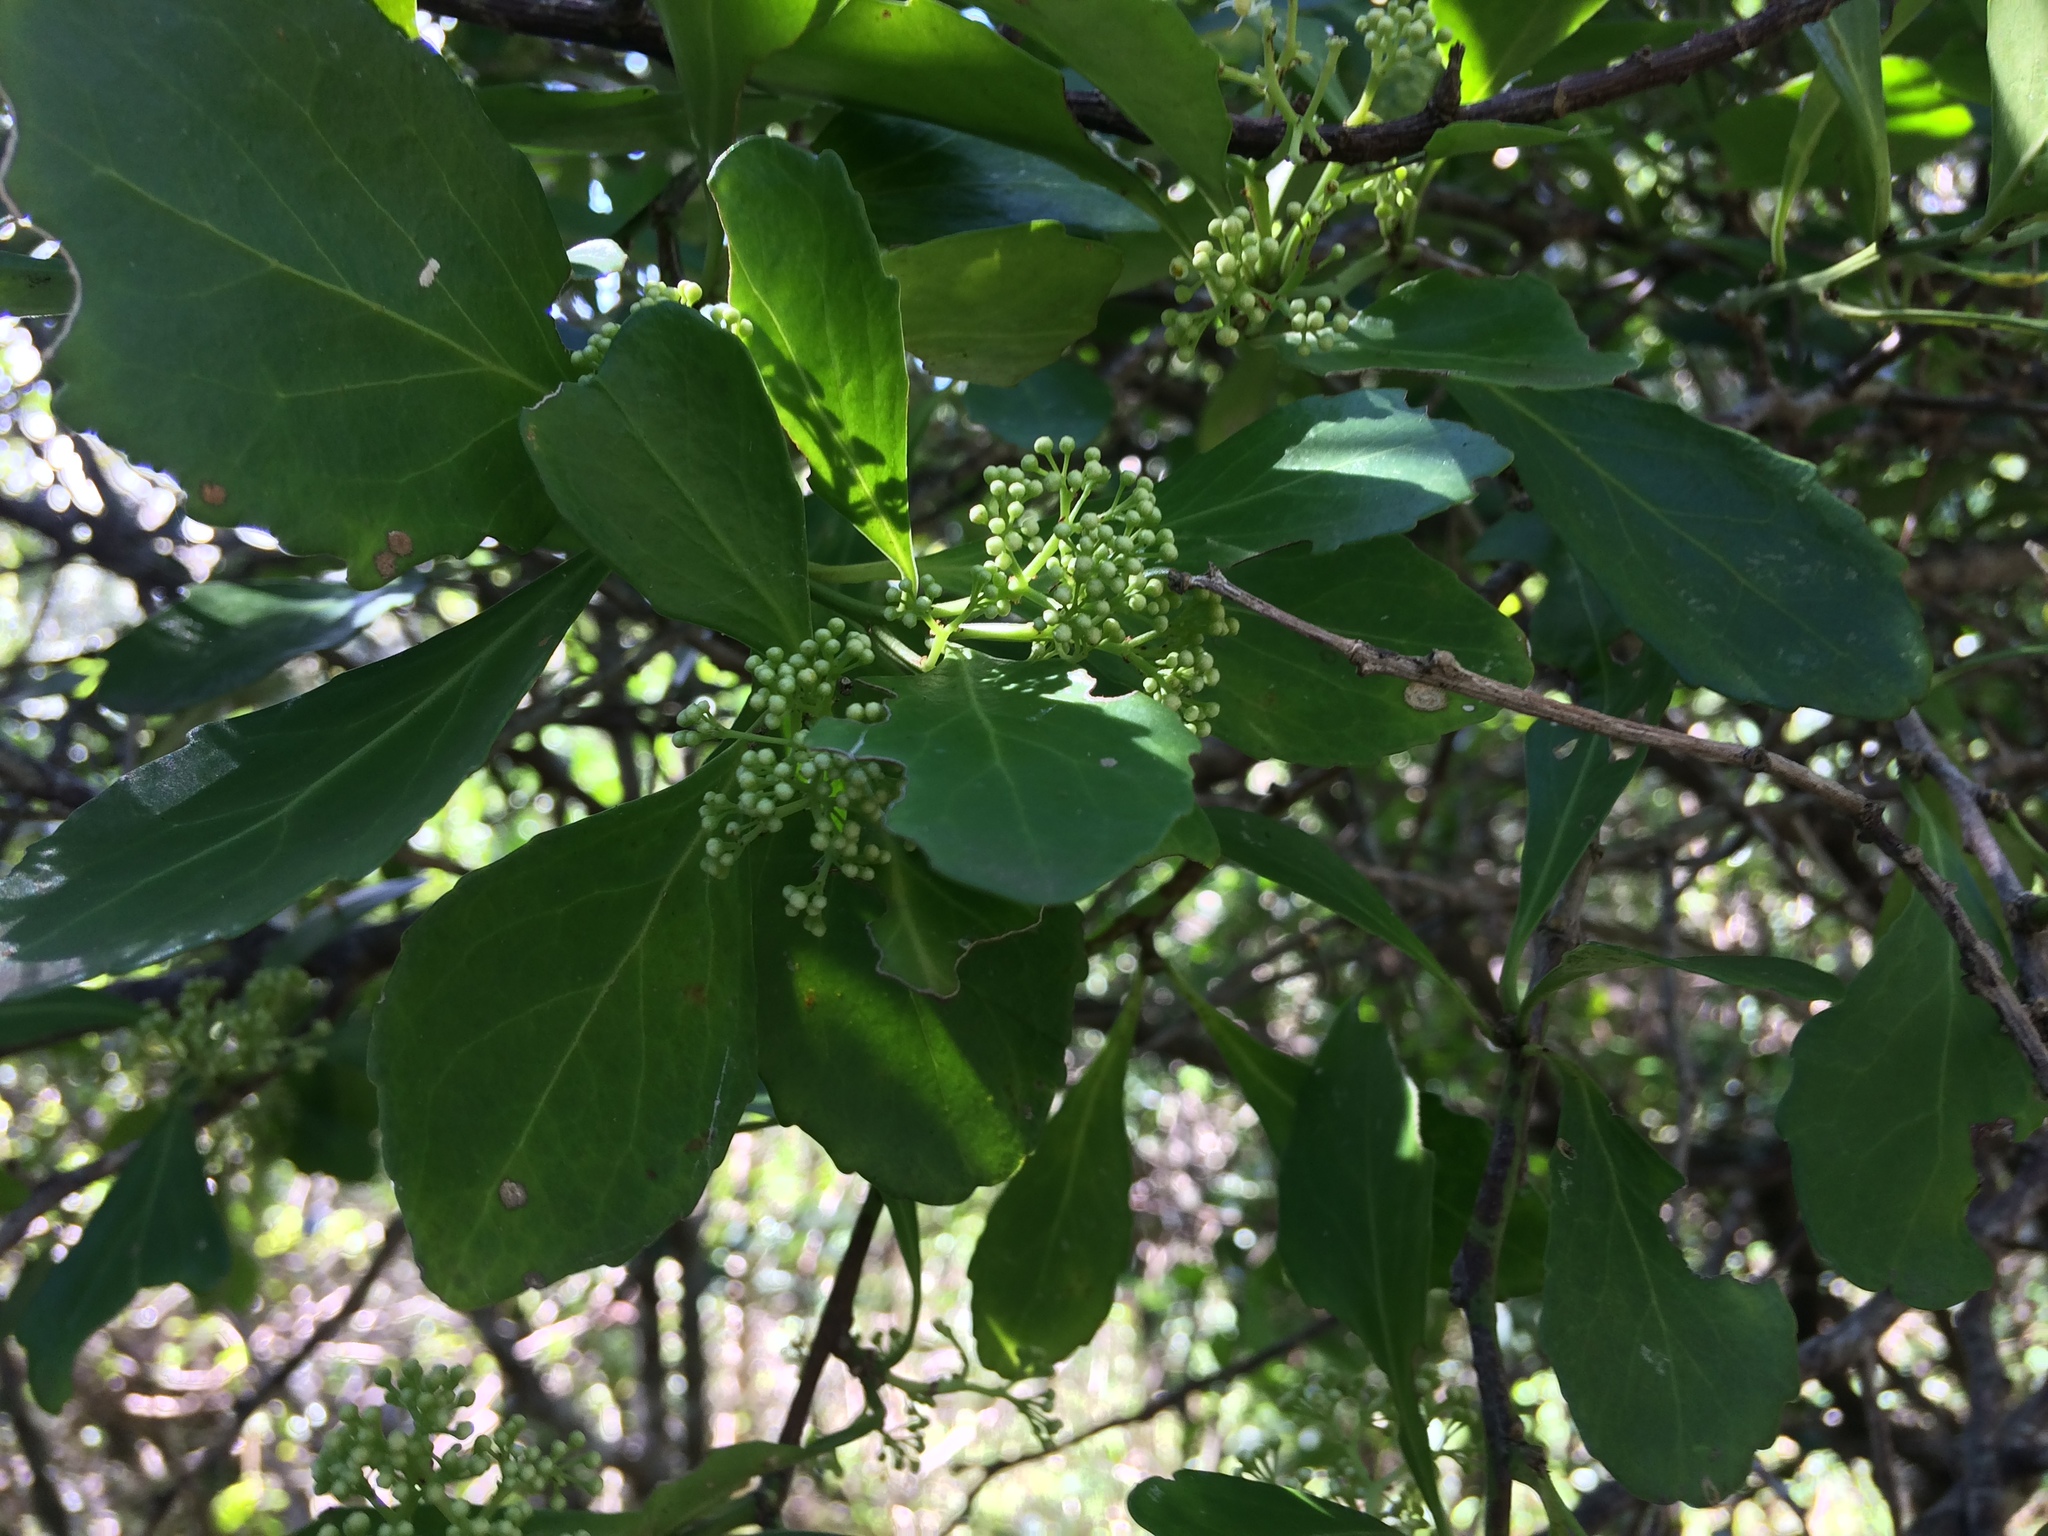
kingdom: Plantae
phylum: Tracheophyta
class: Magnoliopsida
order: Celastrales
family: Celastraceae
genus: Gymnosporia
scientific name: Gymnosporia nemorosa
